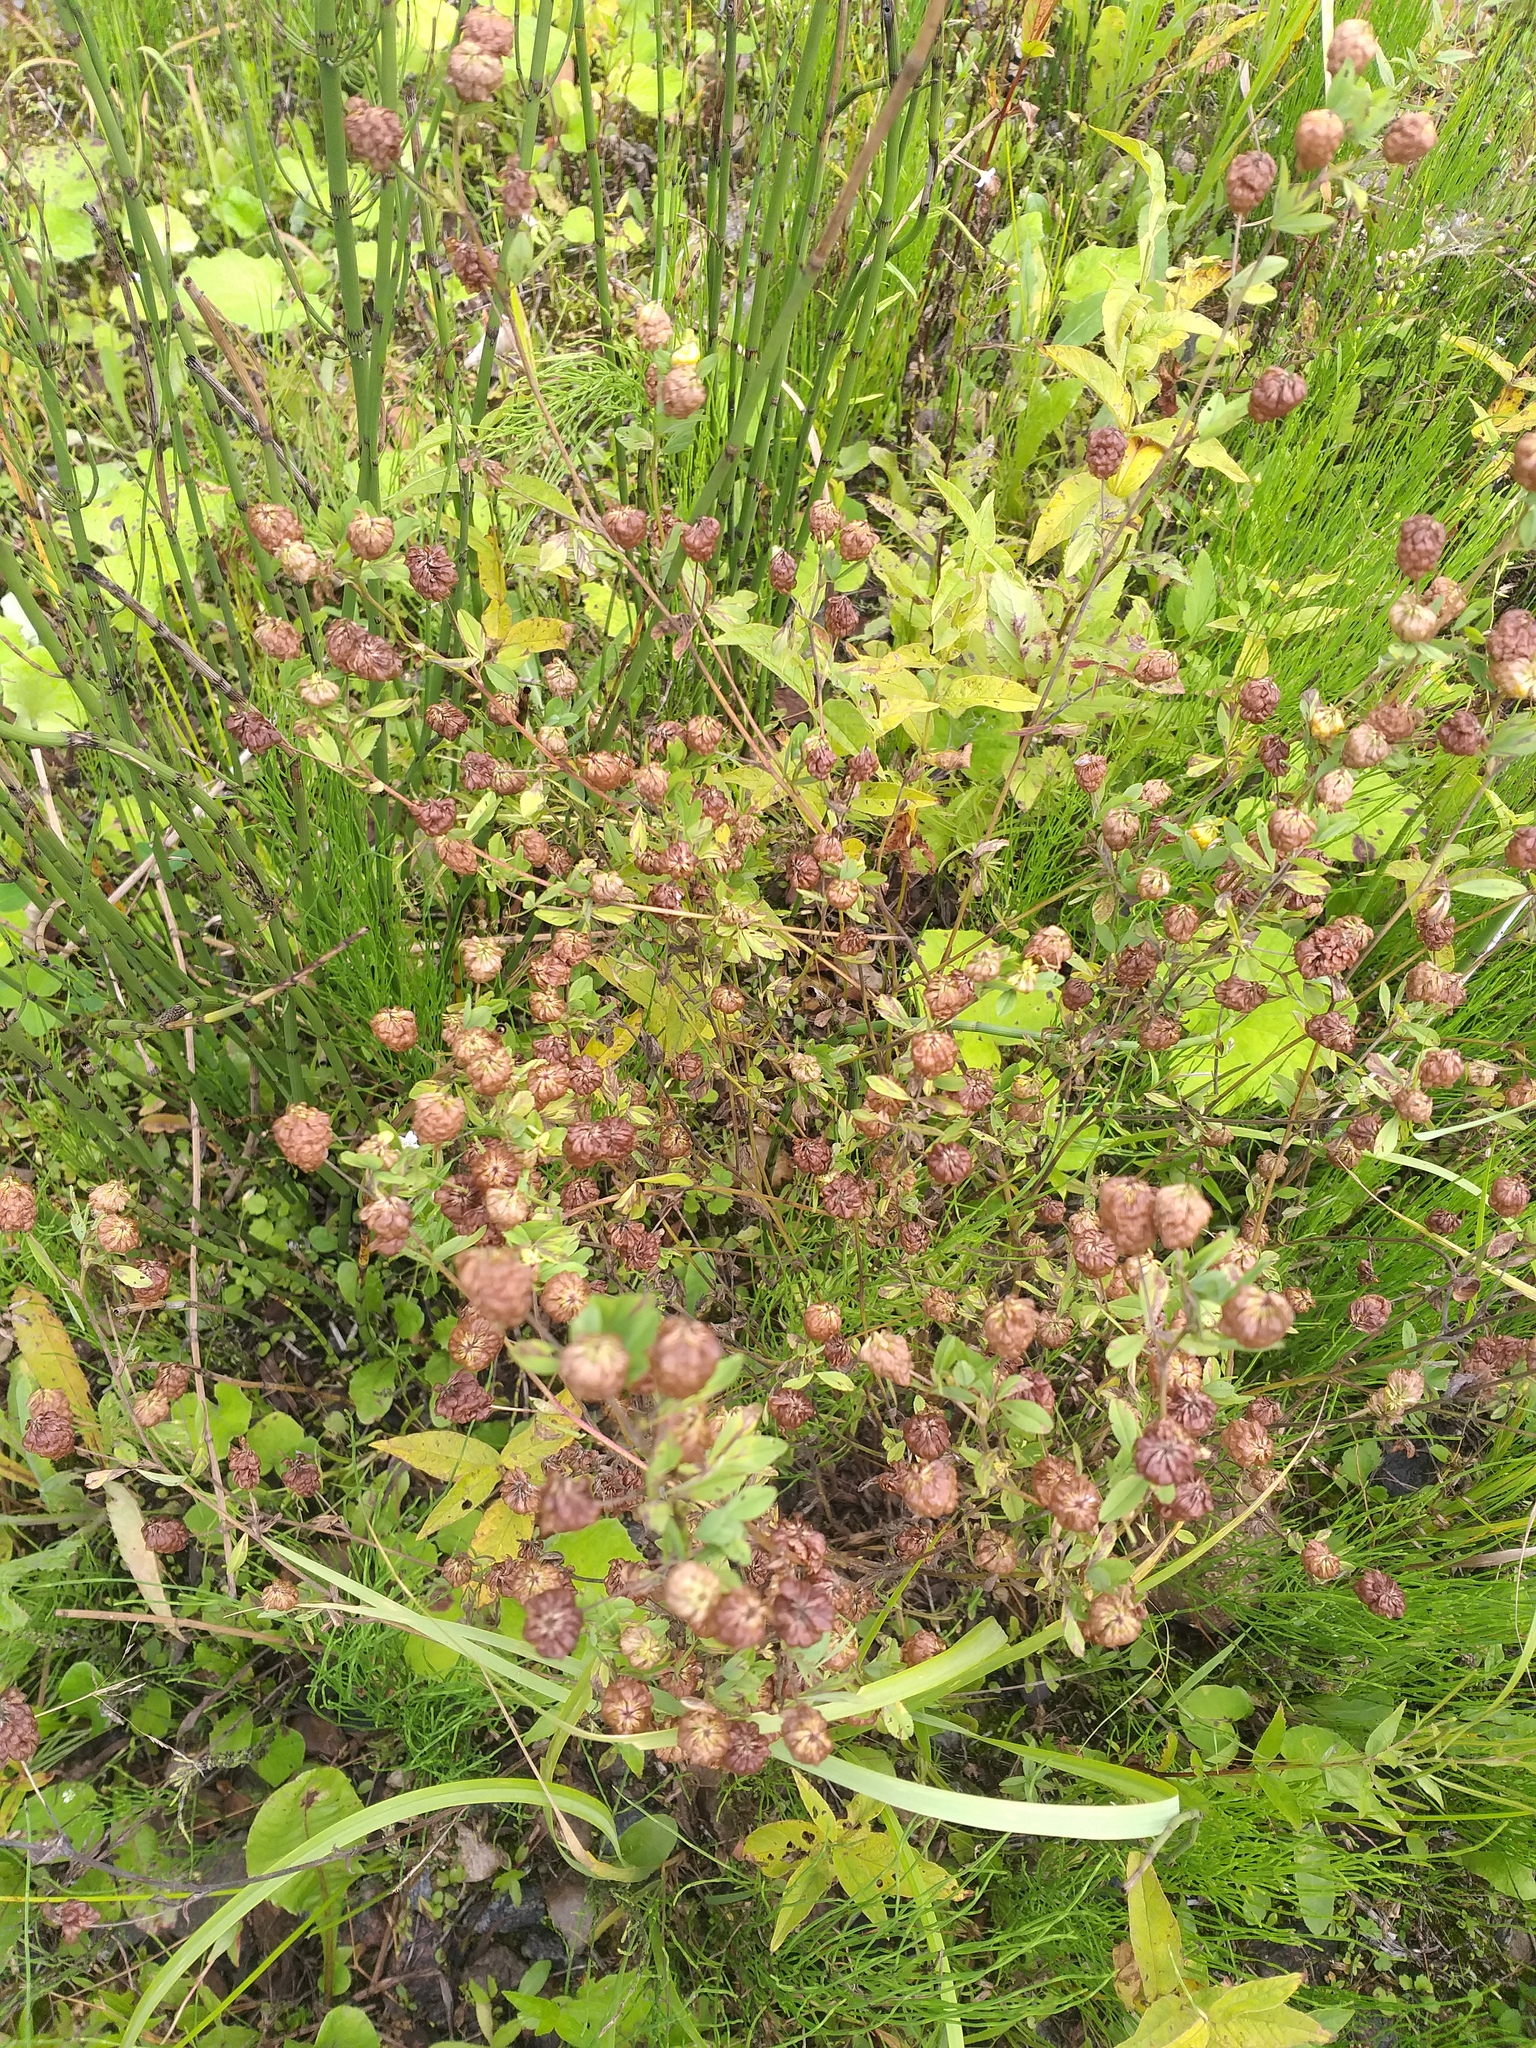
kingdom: Plantae
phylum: Tracheophyta
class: Magnoliopsida
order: Fabales
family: Fabaceae
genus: Trifolium
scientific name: Trifolium aureum
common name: Golden clover
